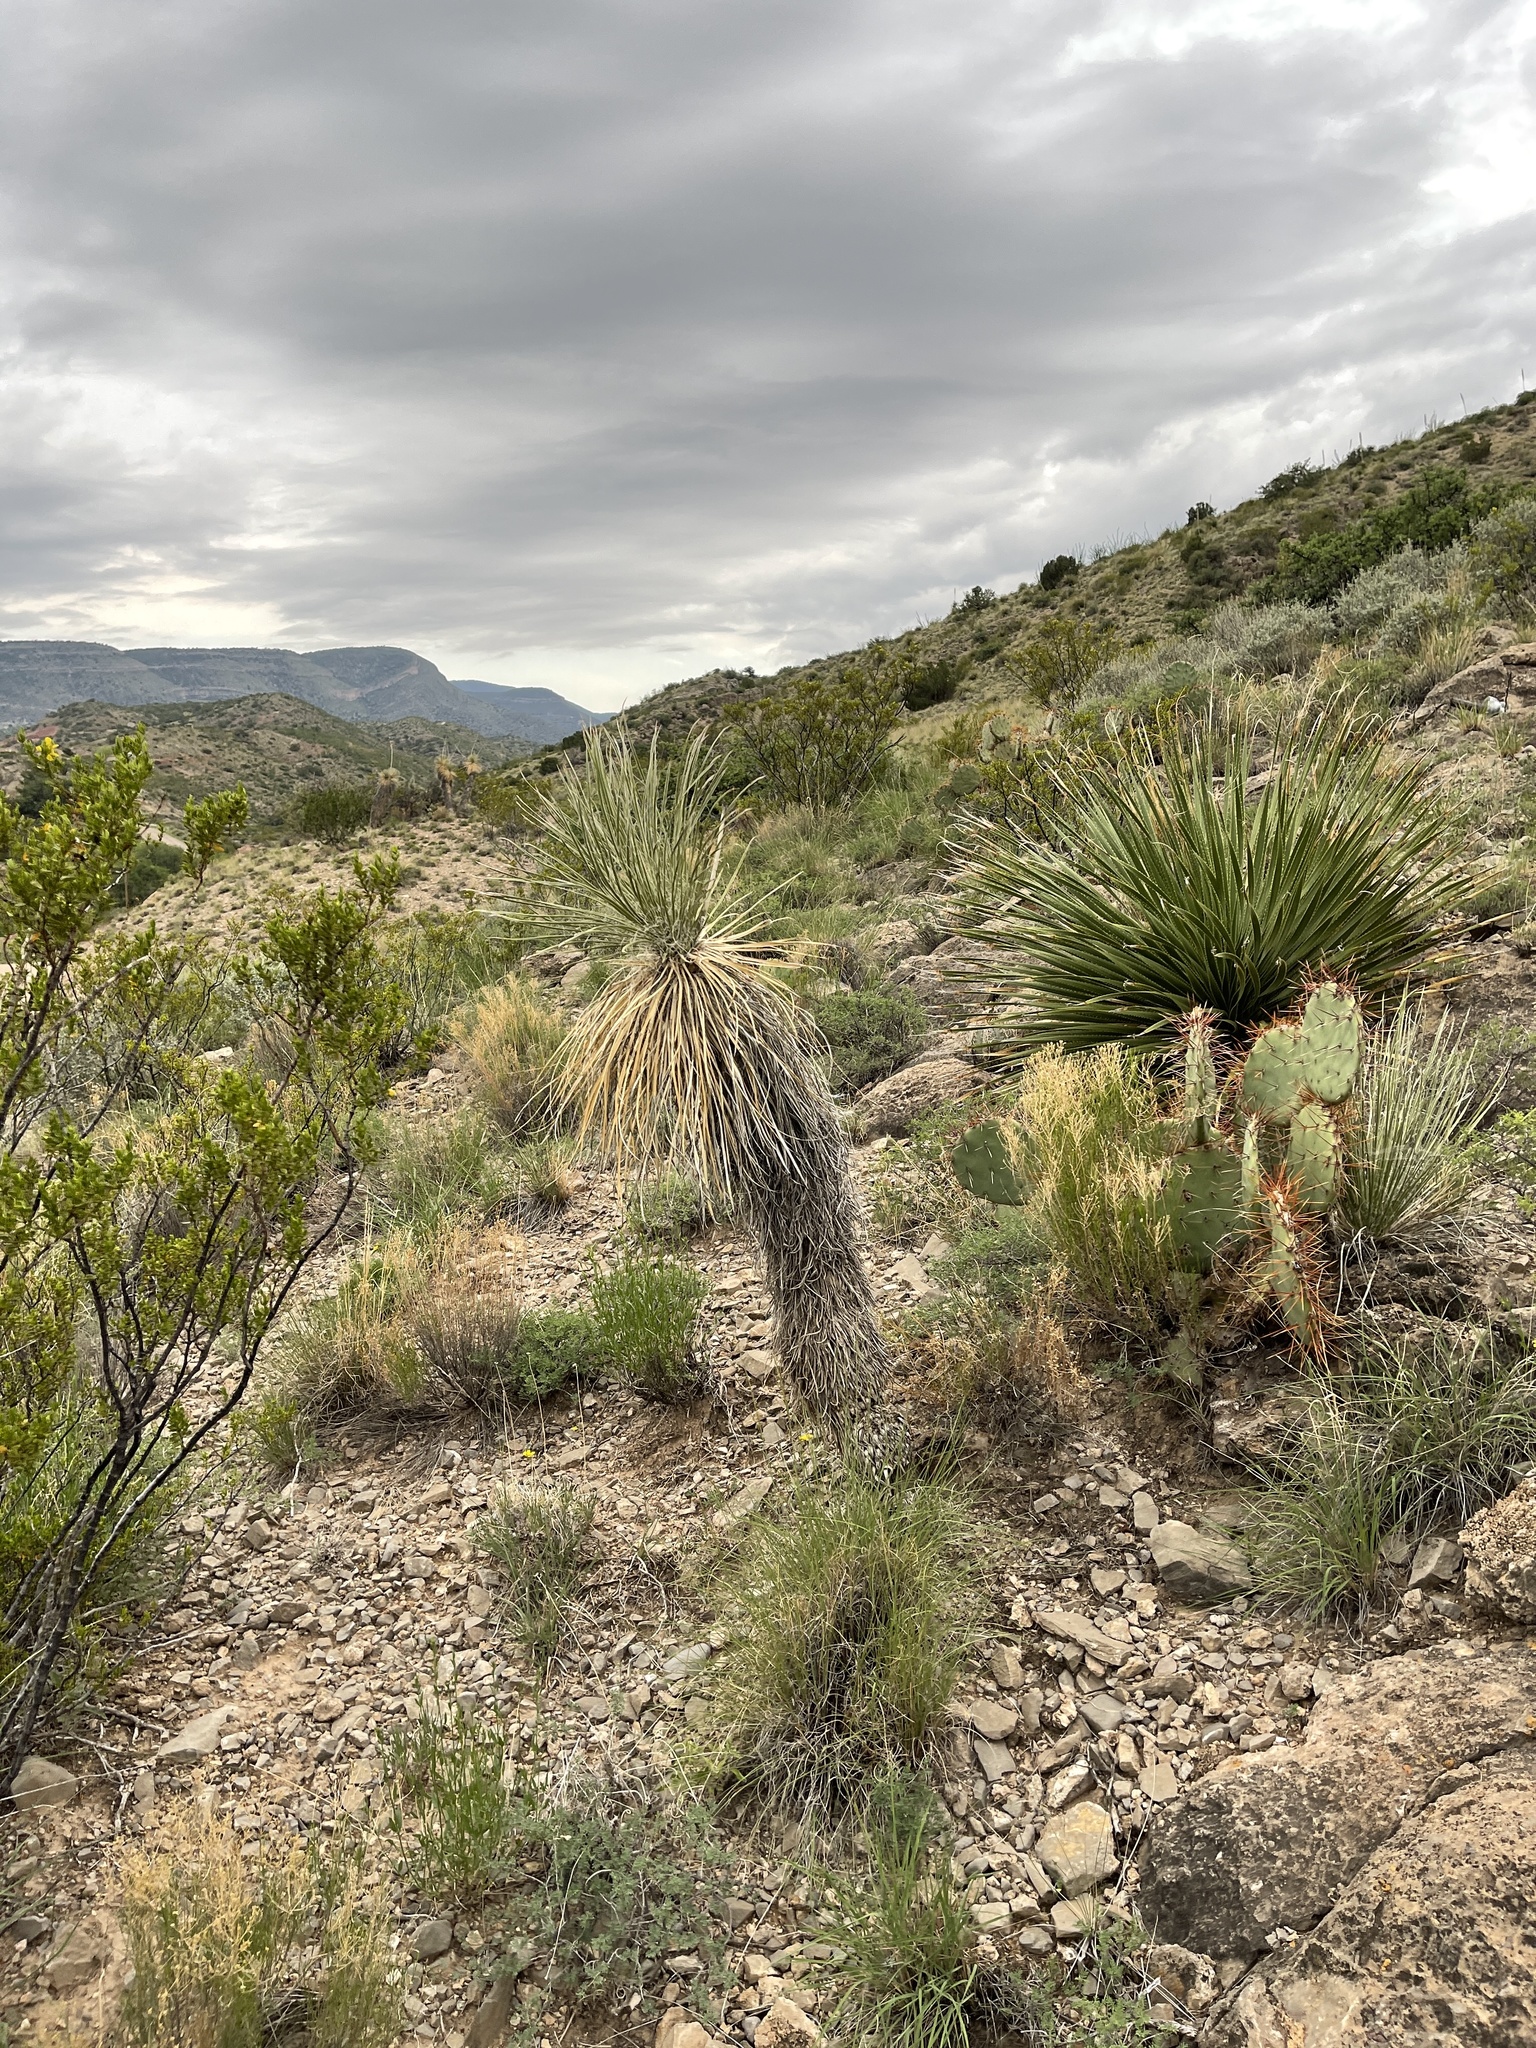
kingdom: Plantae
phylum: Tracheophyta
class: Liliopsida
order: Asparagales
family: Asparagaceae
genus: Yucca
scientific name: Yucca elata
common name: Palmella
